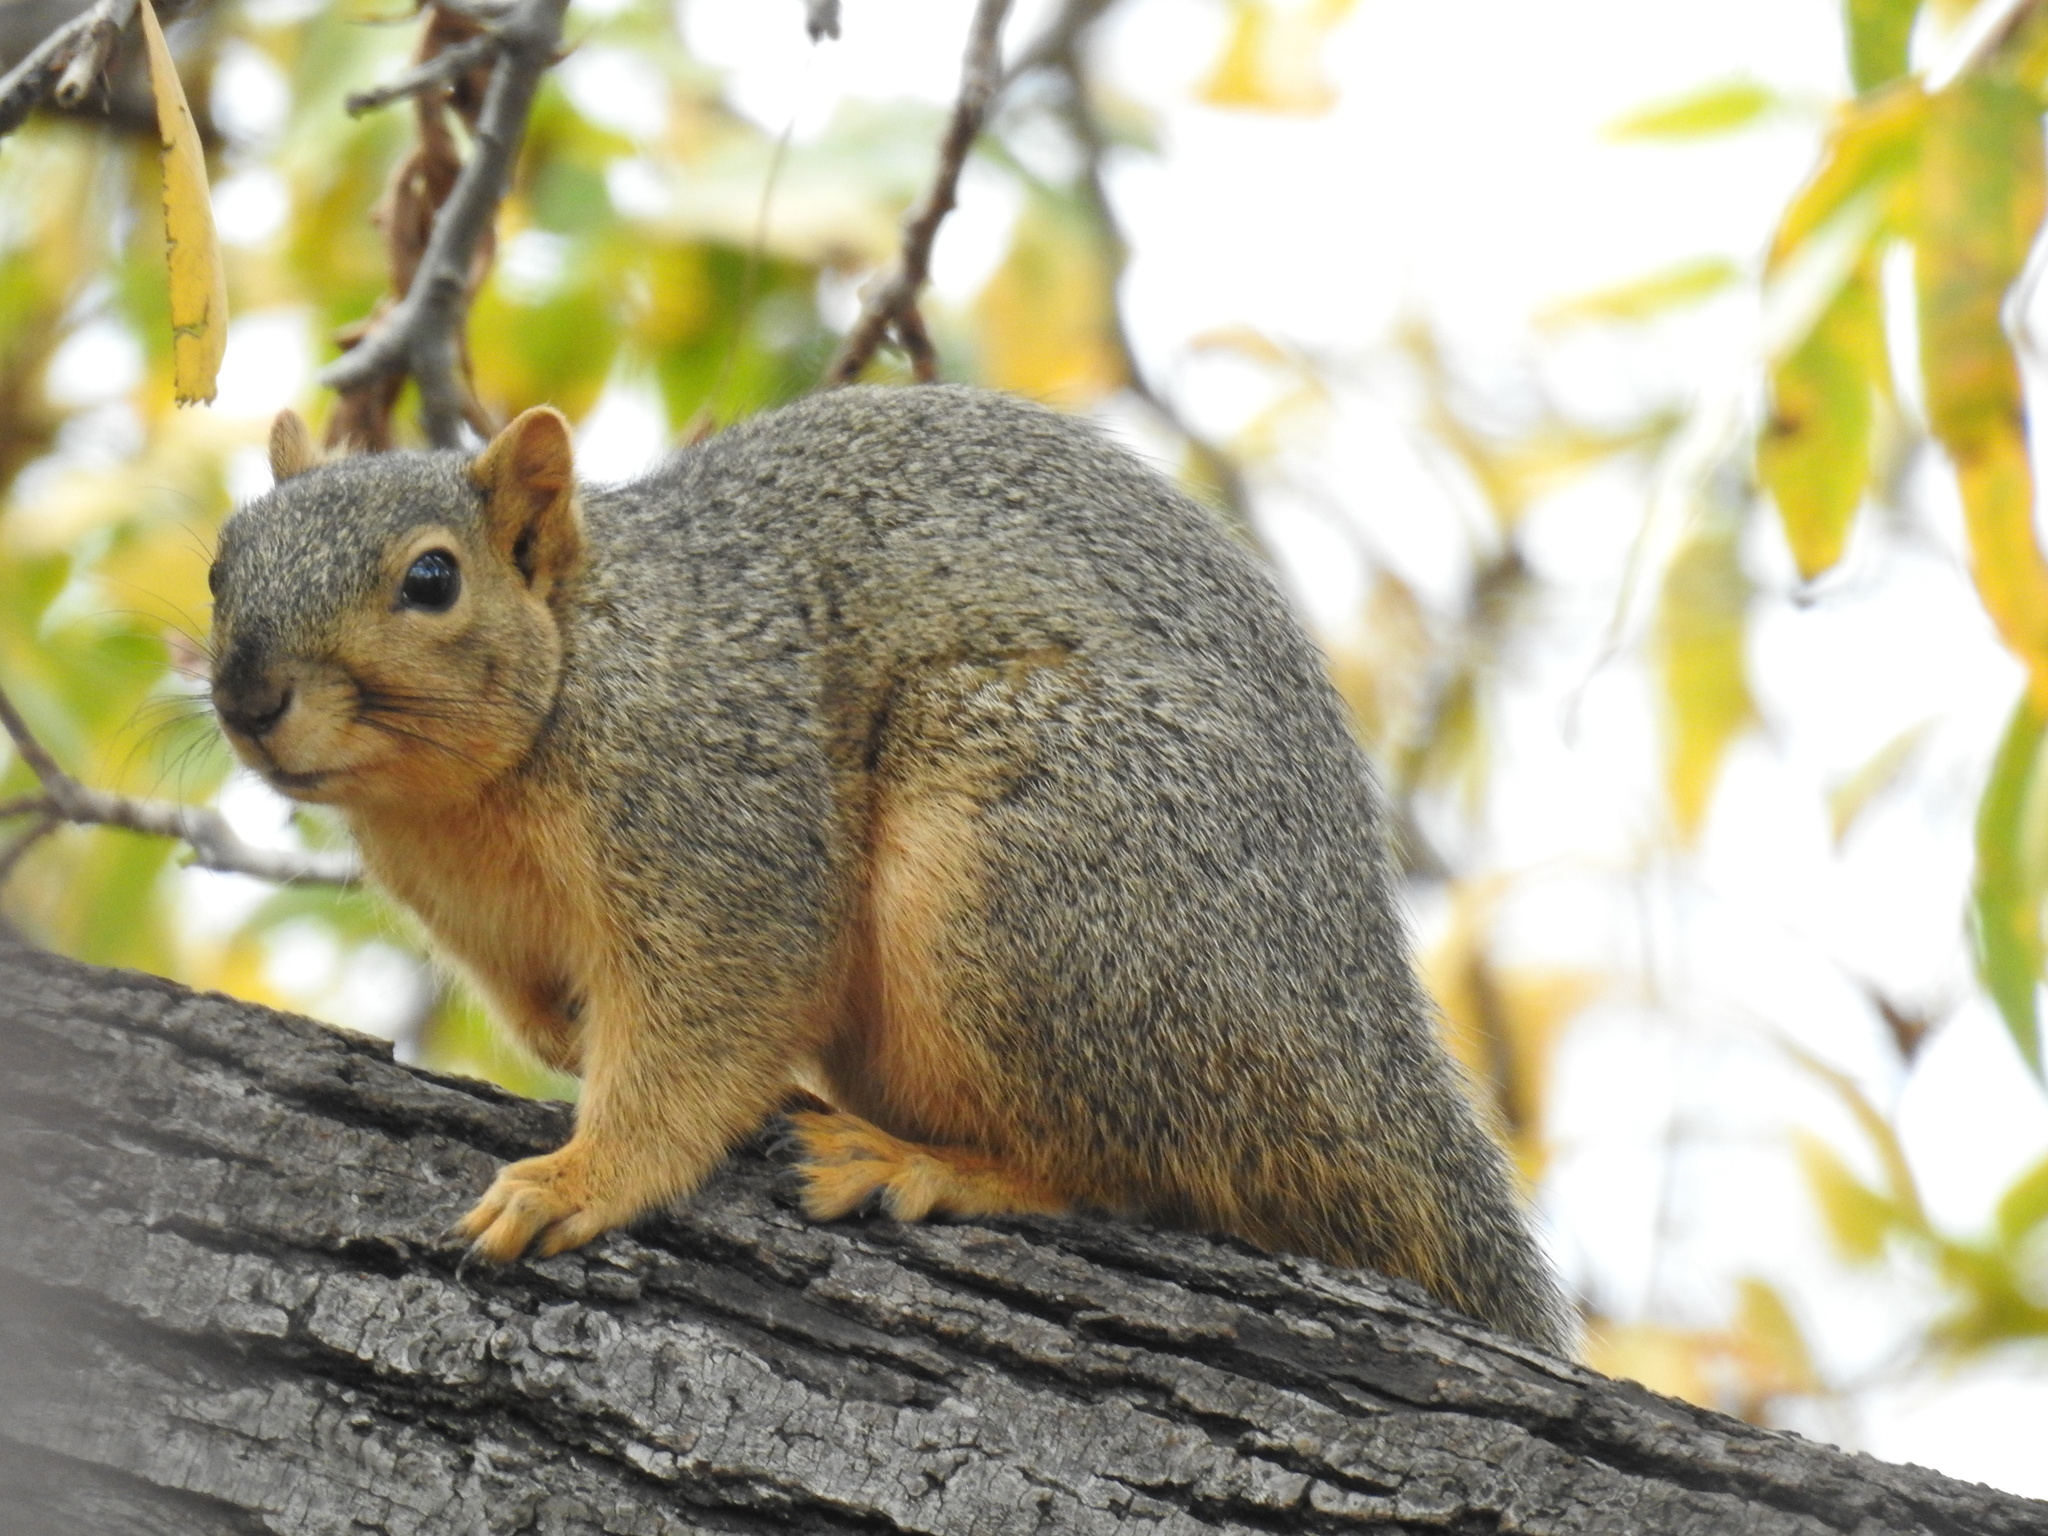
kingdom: Animalia
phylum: Chordata
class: Mammalia
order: Rodentia
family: Sciuridae
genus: Sciurus
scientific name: Sciurus niger
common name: Fox squirrel
